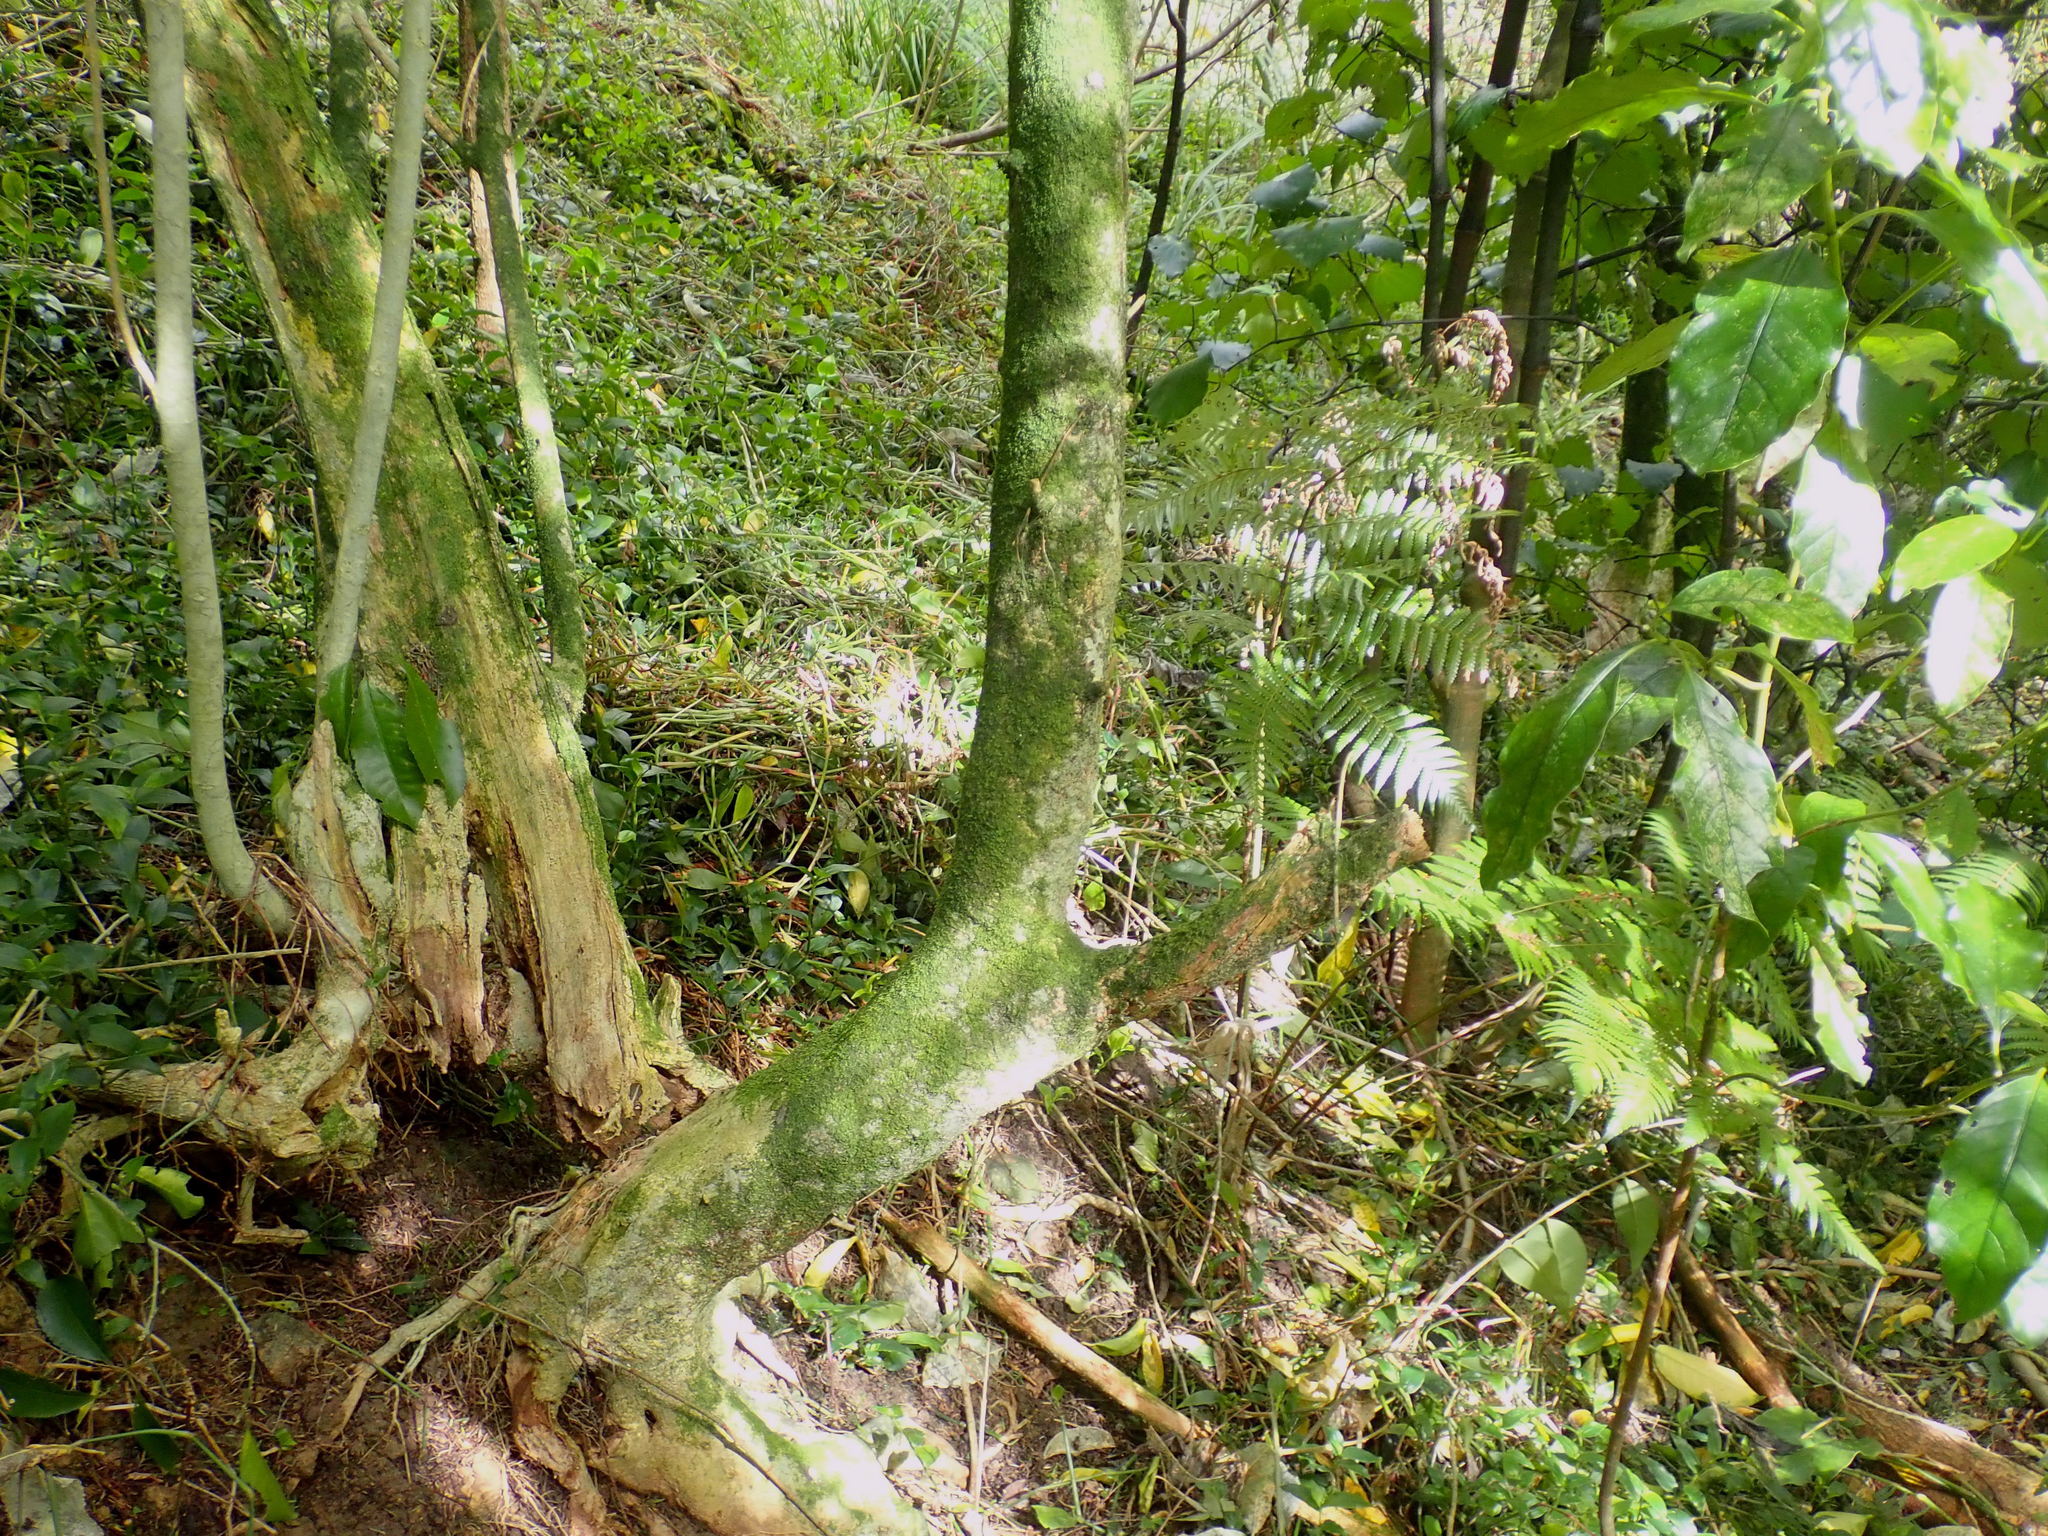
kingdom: Plantae
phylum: Tracheophyta
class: Magnoliopsida
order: Gentianales
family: Rubiaceae
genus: Coprosma
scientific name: Coprosma autumnalis
